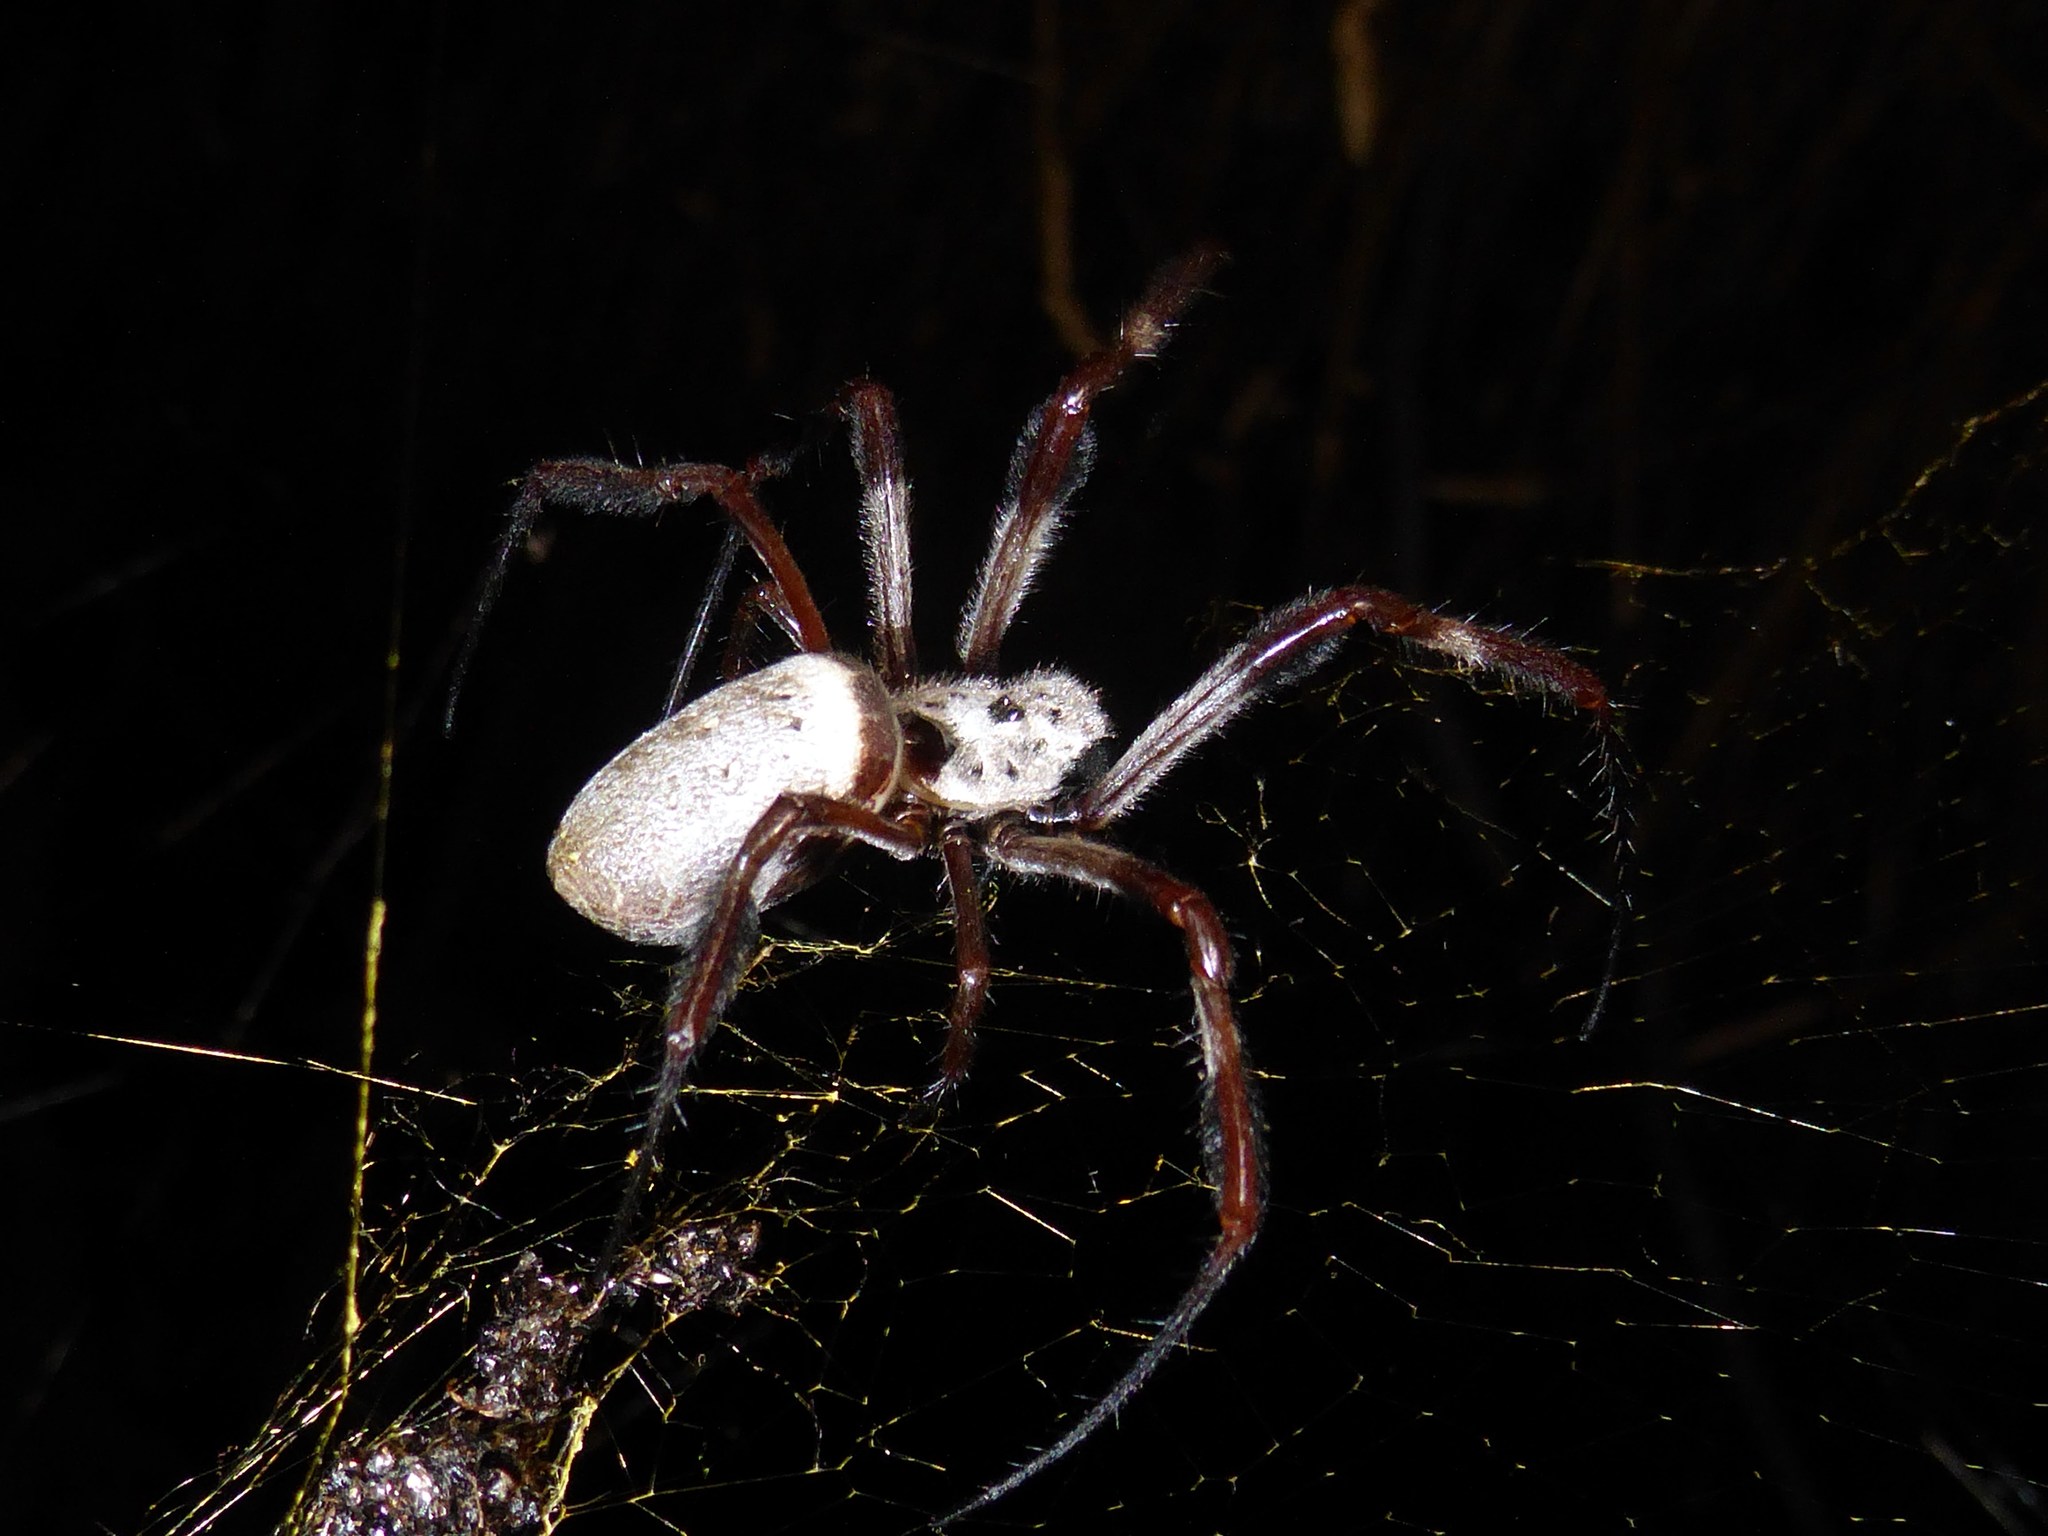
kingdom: Animalia
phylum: Arthropoda
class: Arachnida
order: Araneae
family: Araneidae
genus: Trichonephila
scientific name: Trichonephila edulis
